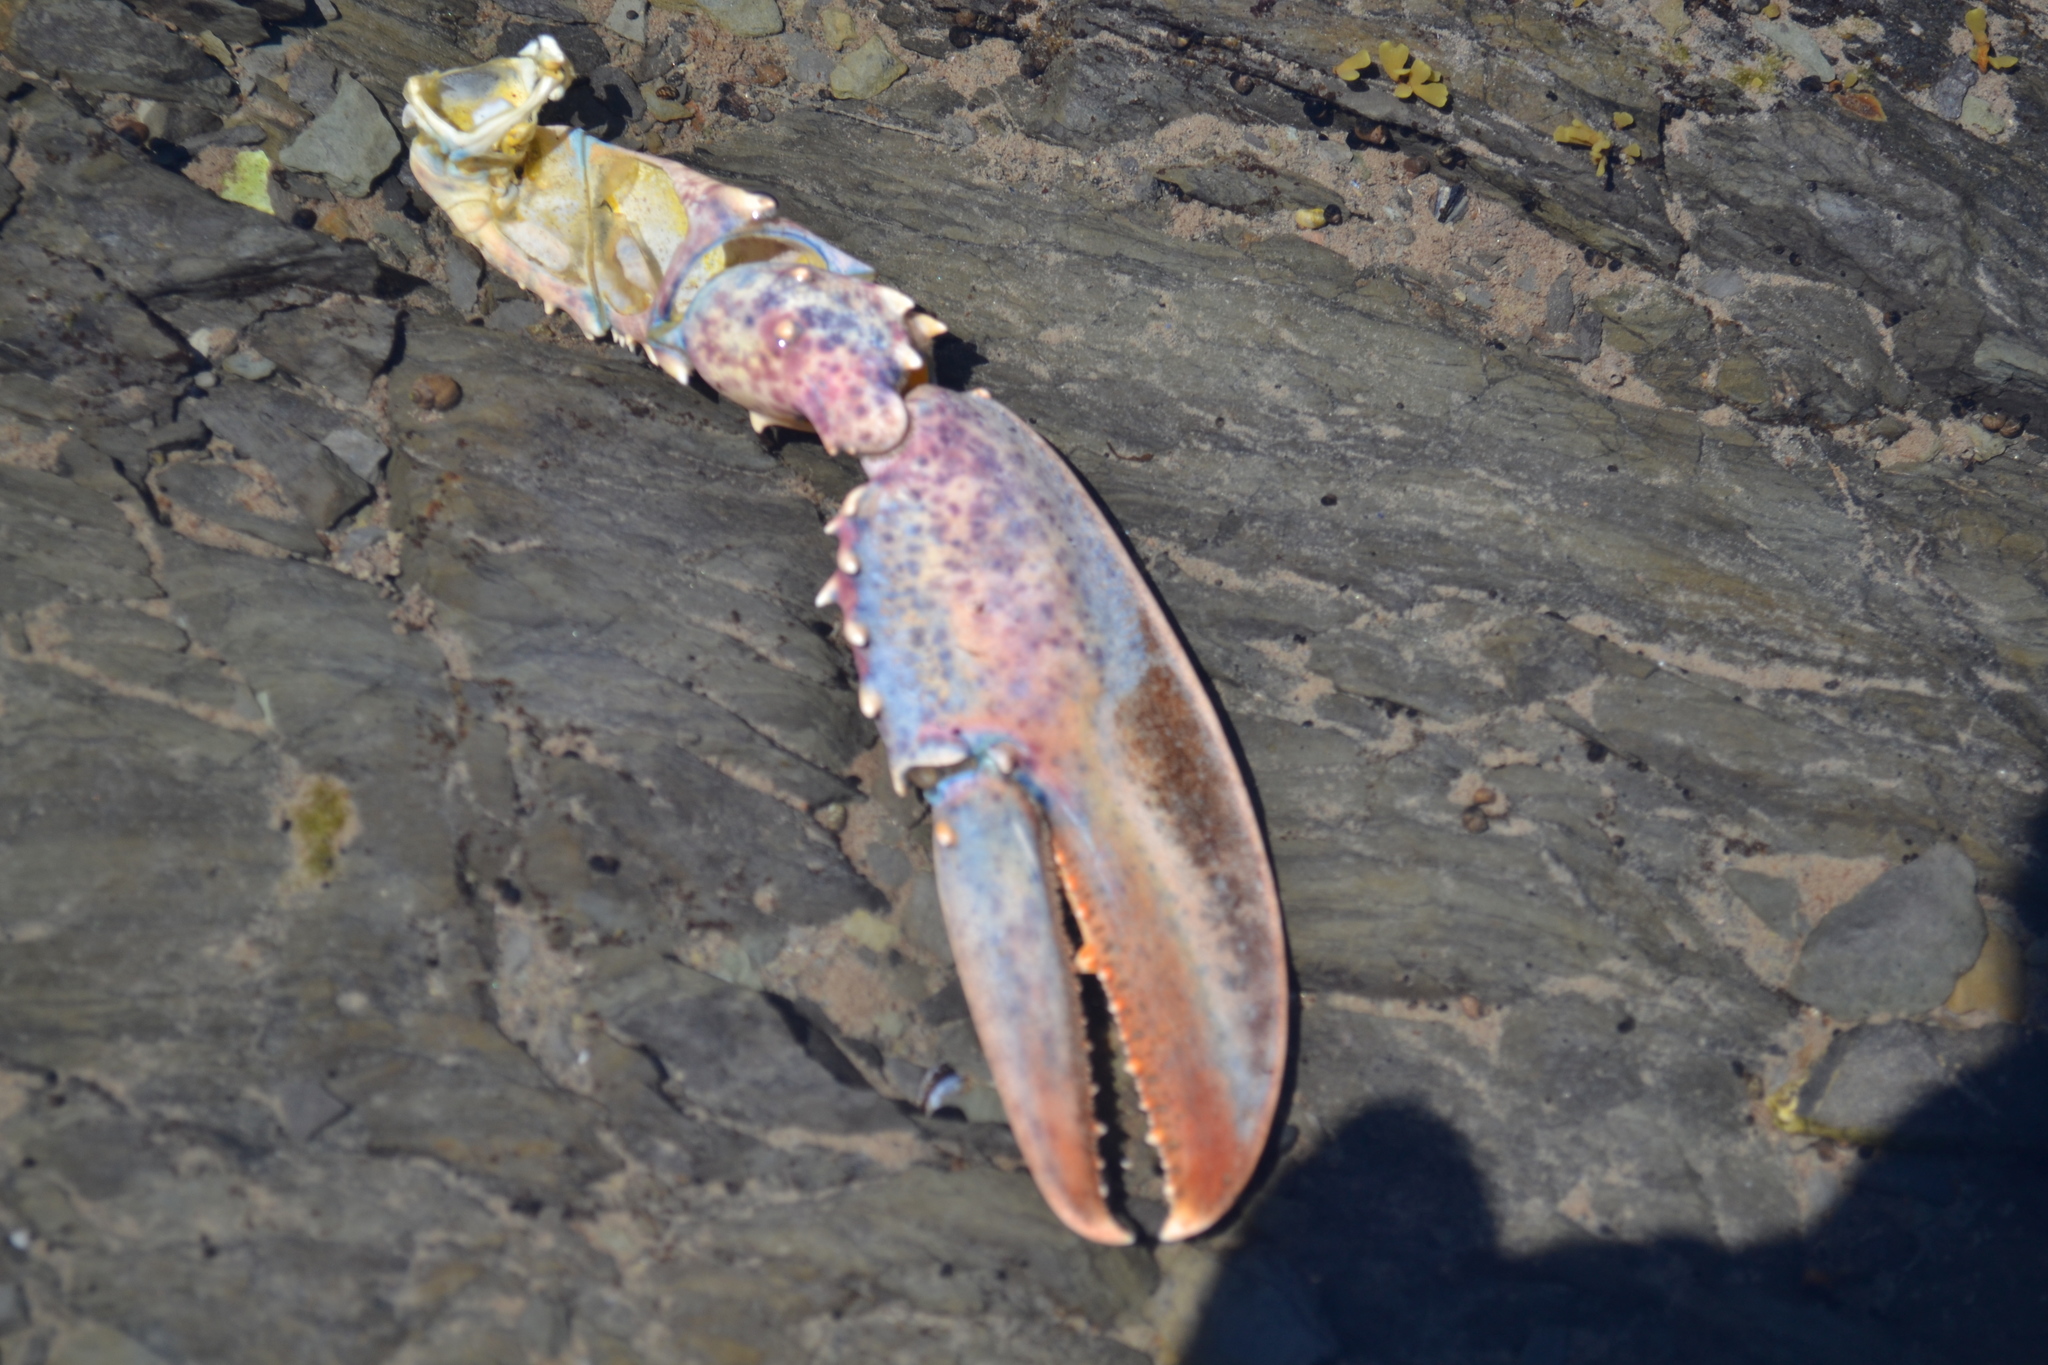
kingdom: Animalia
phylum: Arthropoda
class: Malacostraca
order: Decapoda
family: Nephropidae
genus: Homarus
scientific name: Homarus americanus
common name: American lobster
